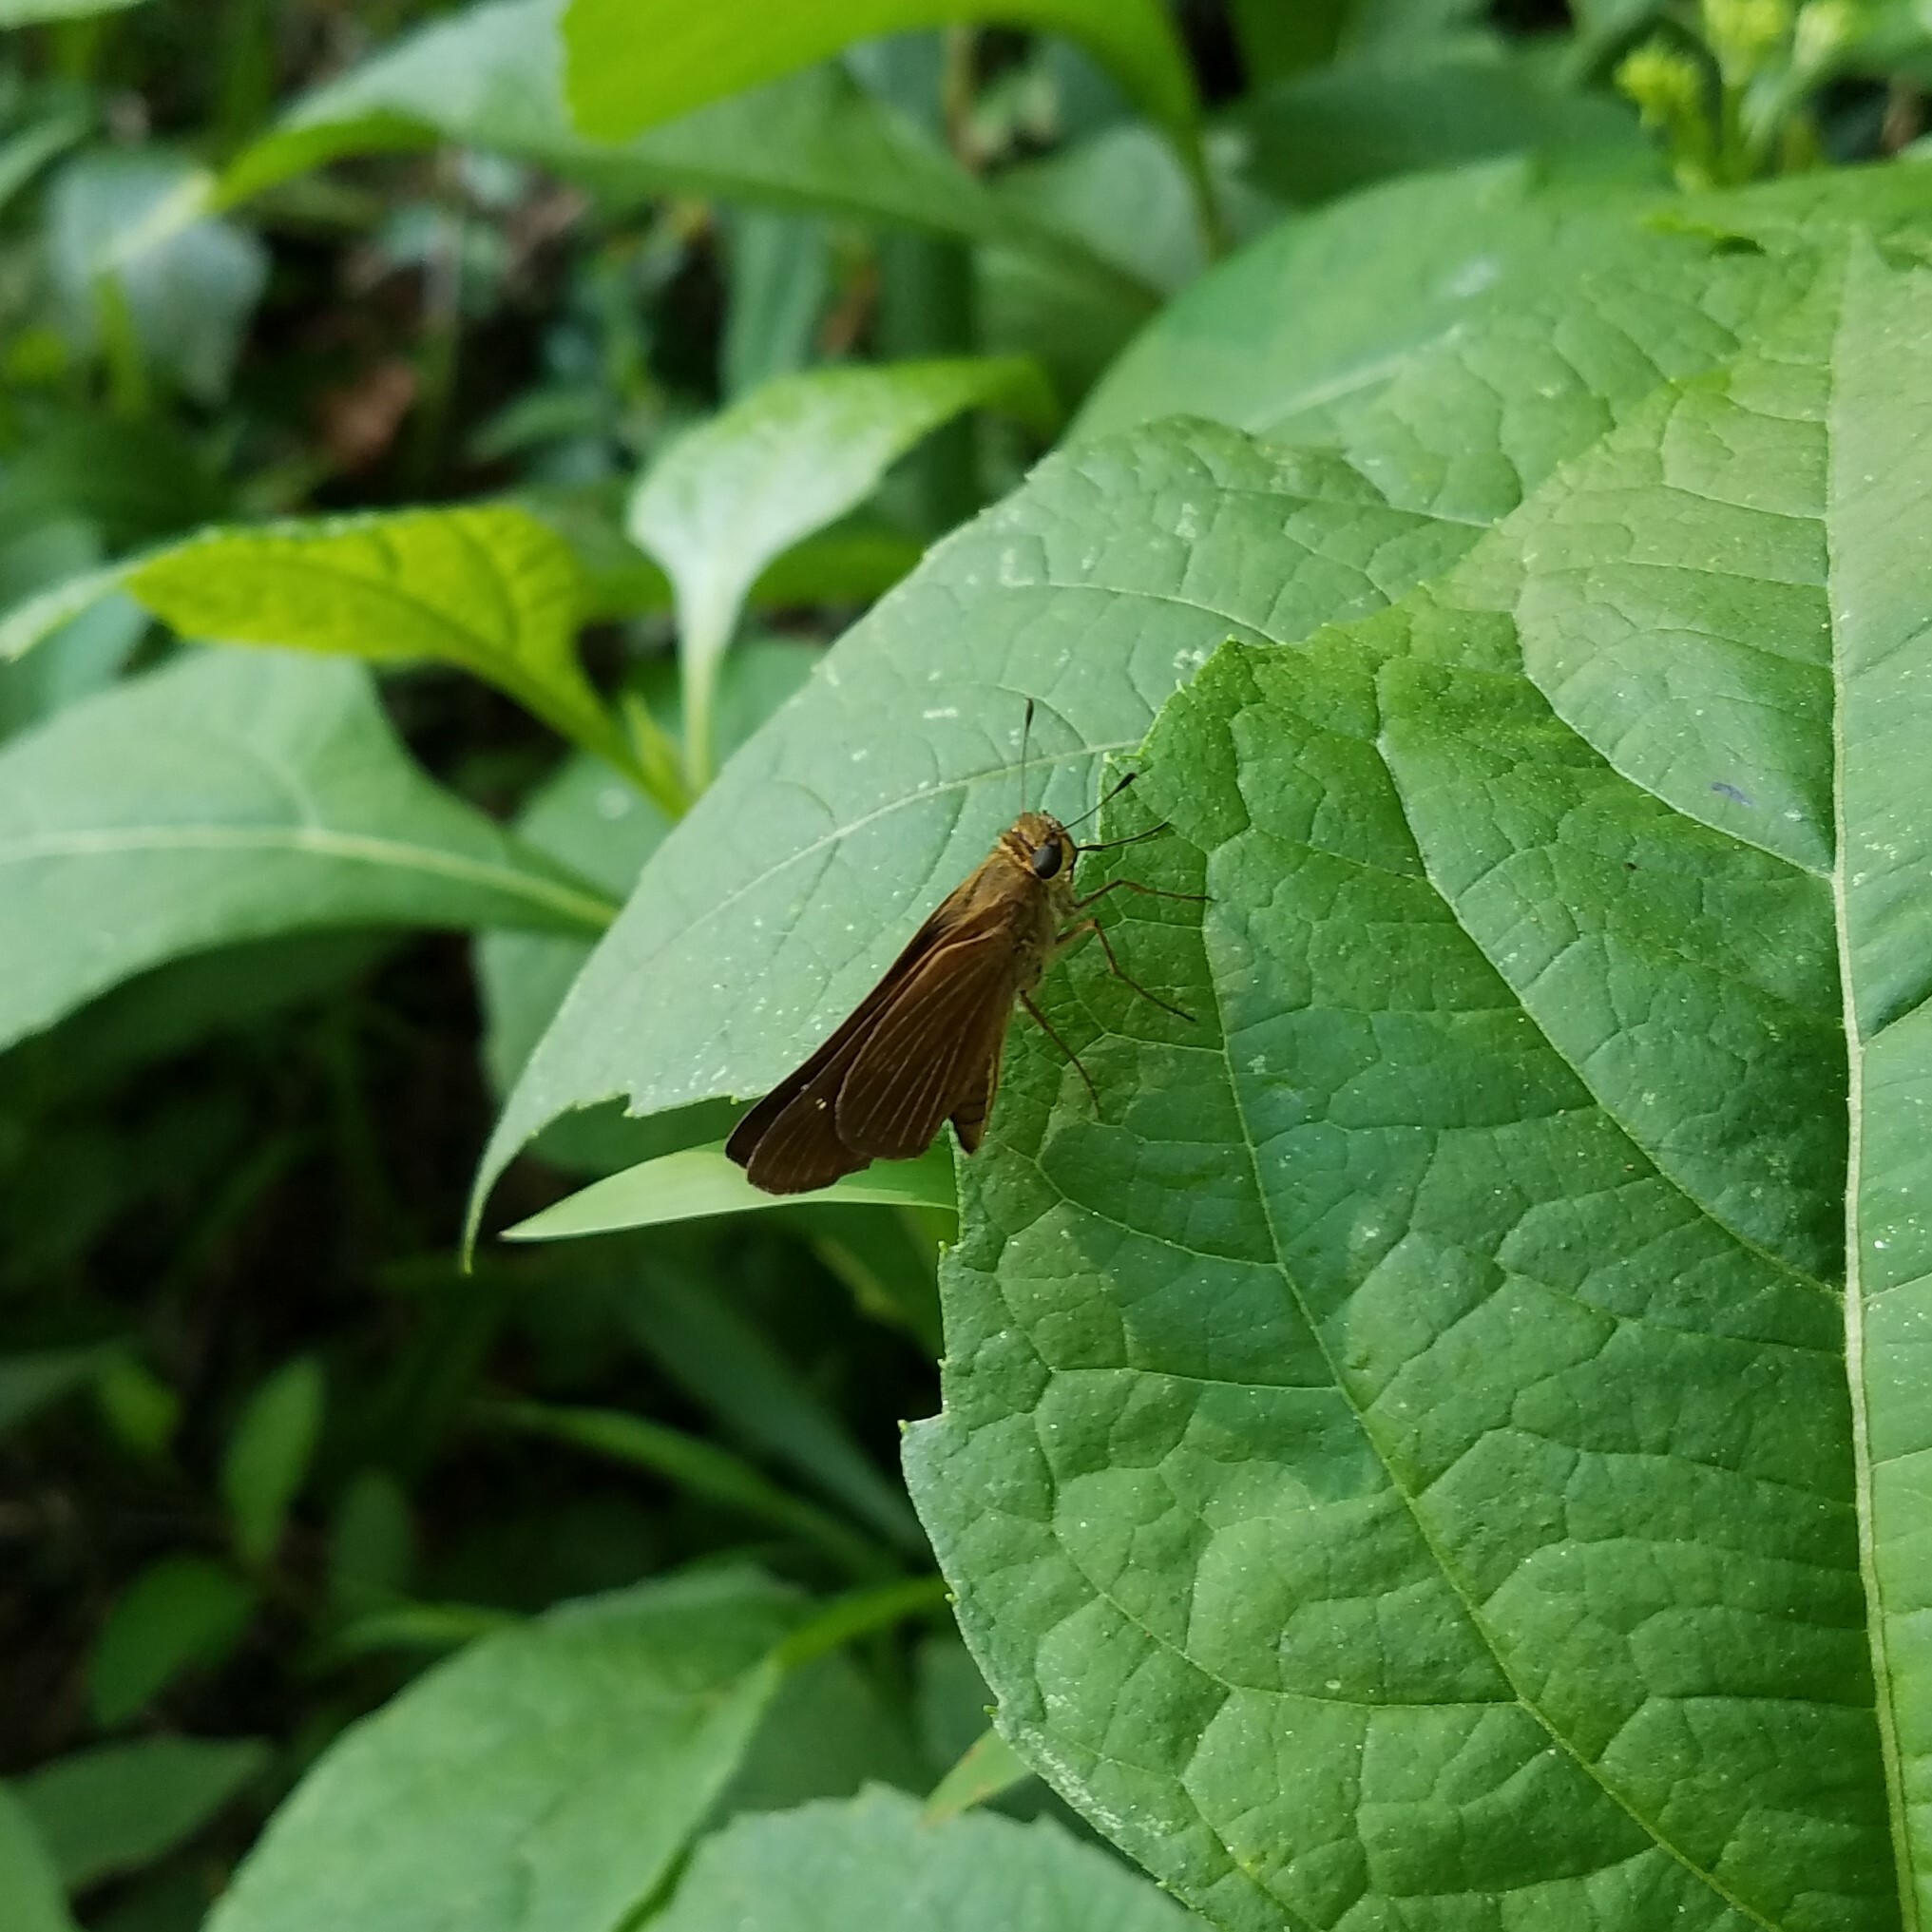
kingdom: Animalia
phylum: Arthropoda
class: Insecta
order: Lepidoptera
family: Hesperiidae
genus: Panoquina
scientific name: Panoquina ocola
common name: Ocola skipper
